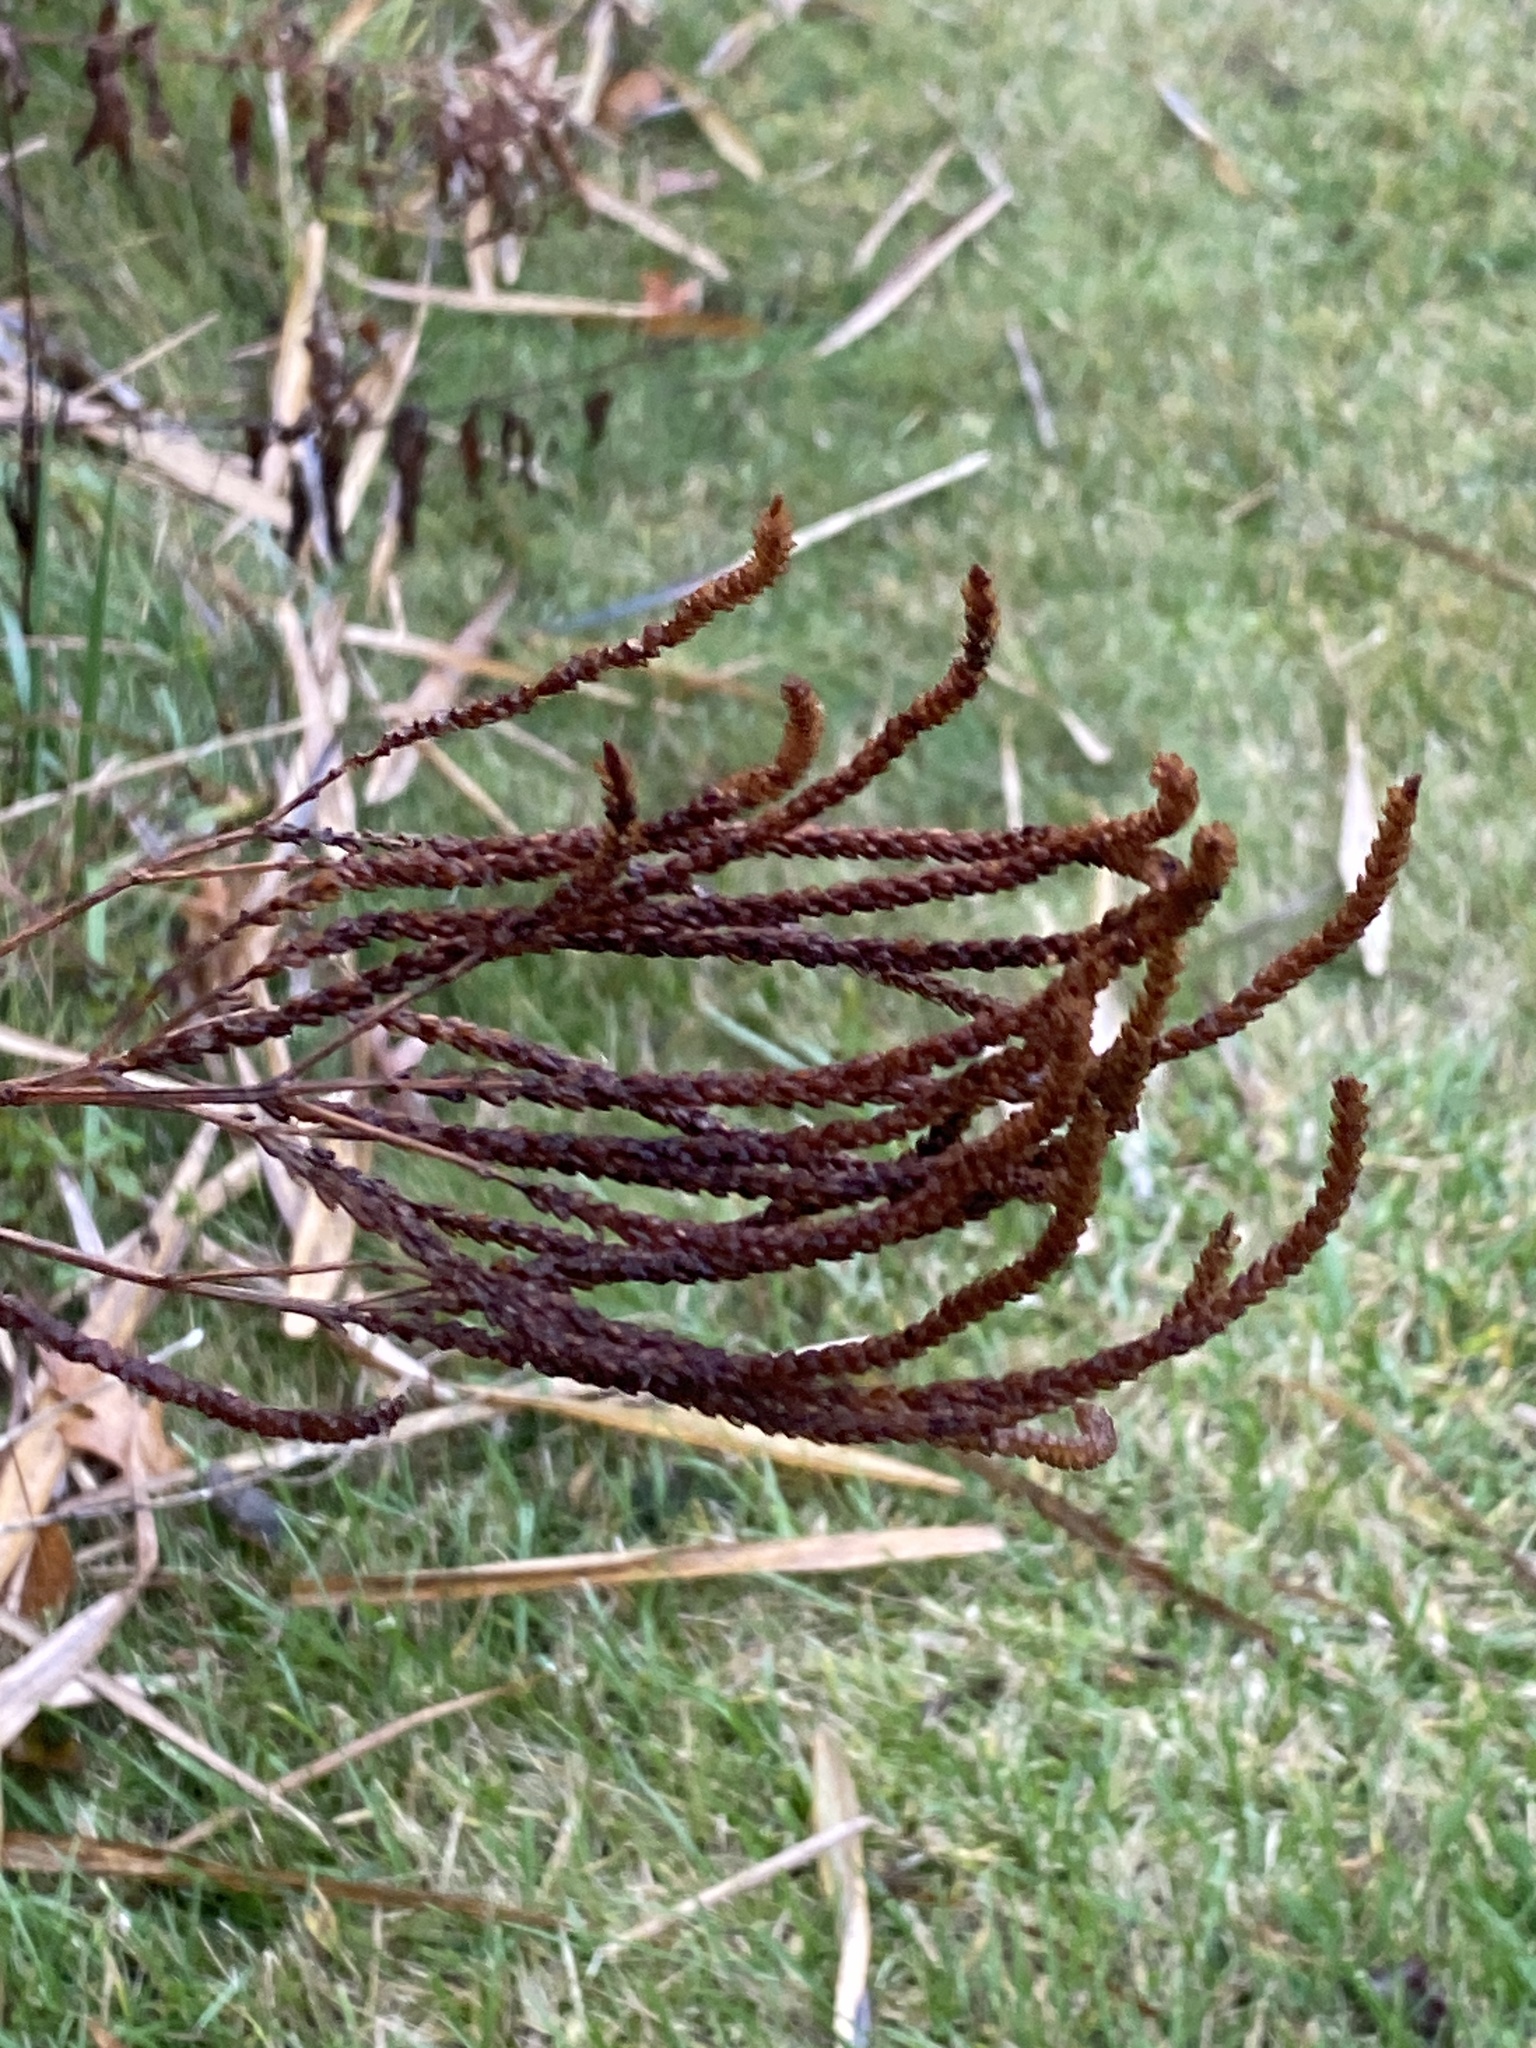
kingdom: Plantae
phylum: Tracheophyta
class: Magnoliopsida
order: Lamiales
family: Verbenaceae
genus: Verbena
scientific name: Verbena hastata
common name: American blue vervain
